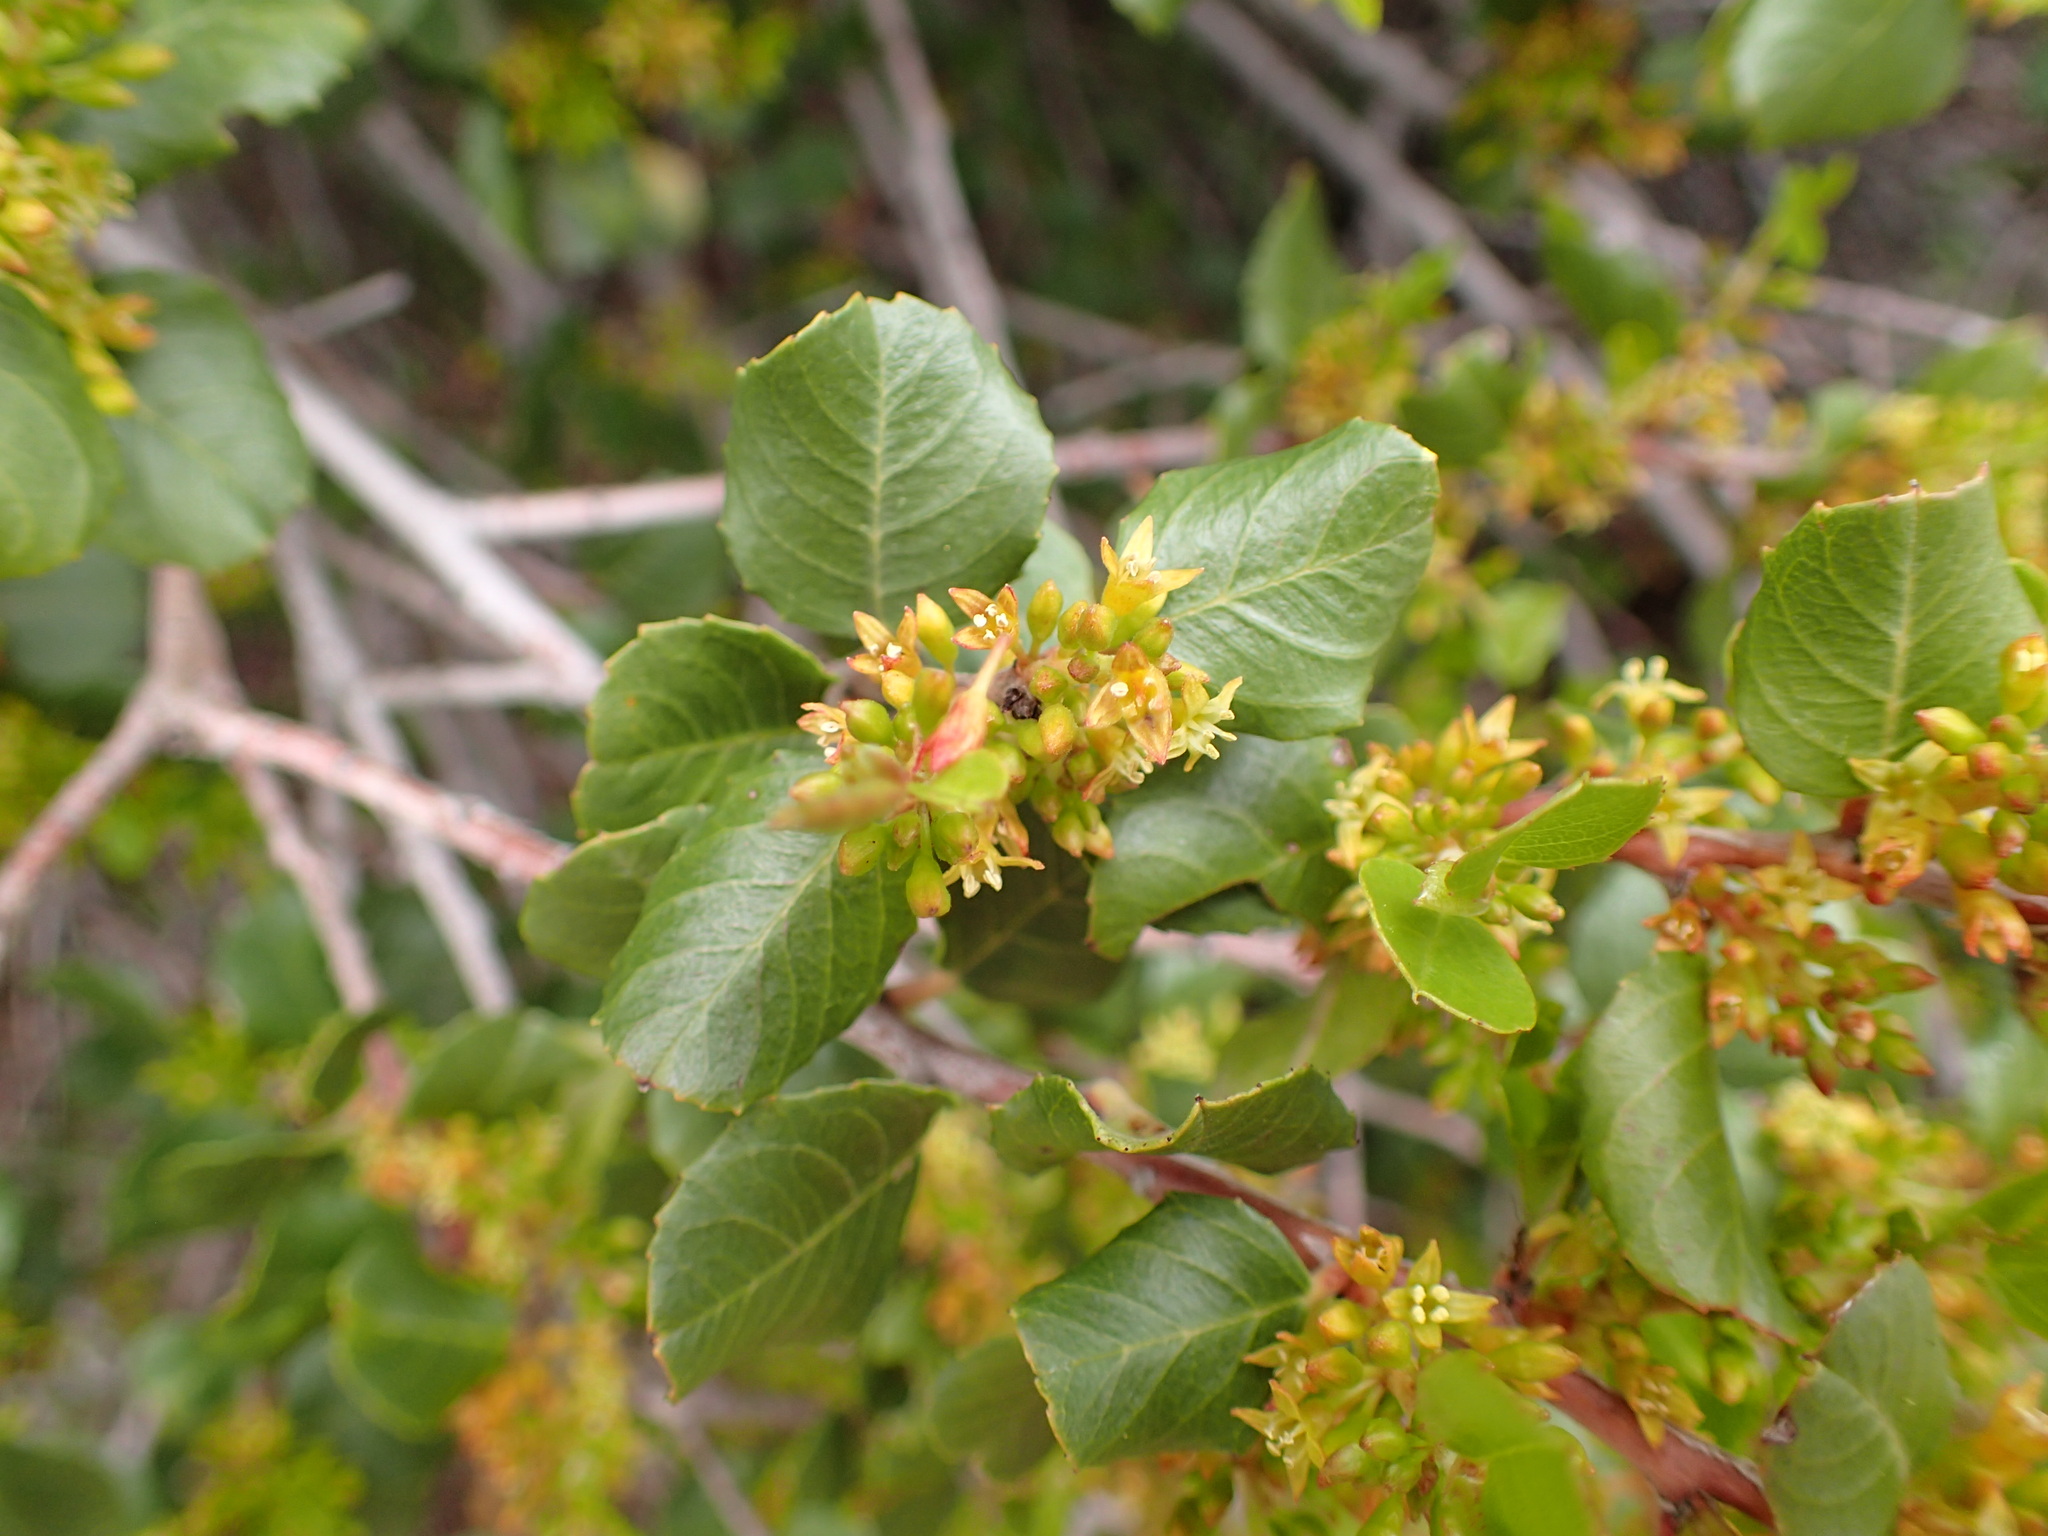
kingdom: Plantae
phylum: Tracheophyta
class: Magnoliopsida
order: Rosales
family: Rhamnaceae
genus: Endotropis
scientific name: Endotropis crocea
